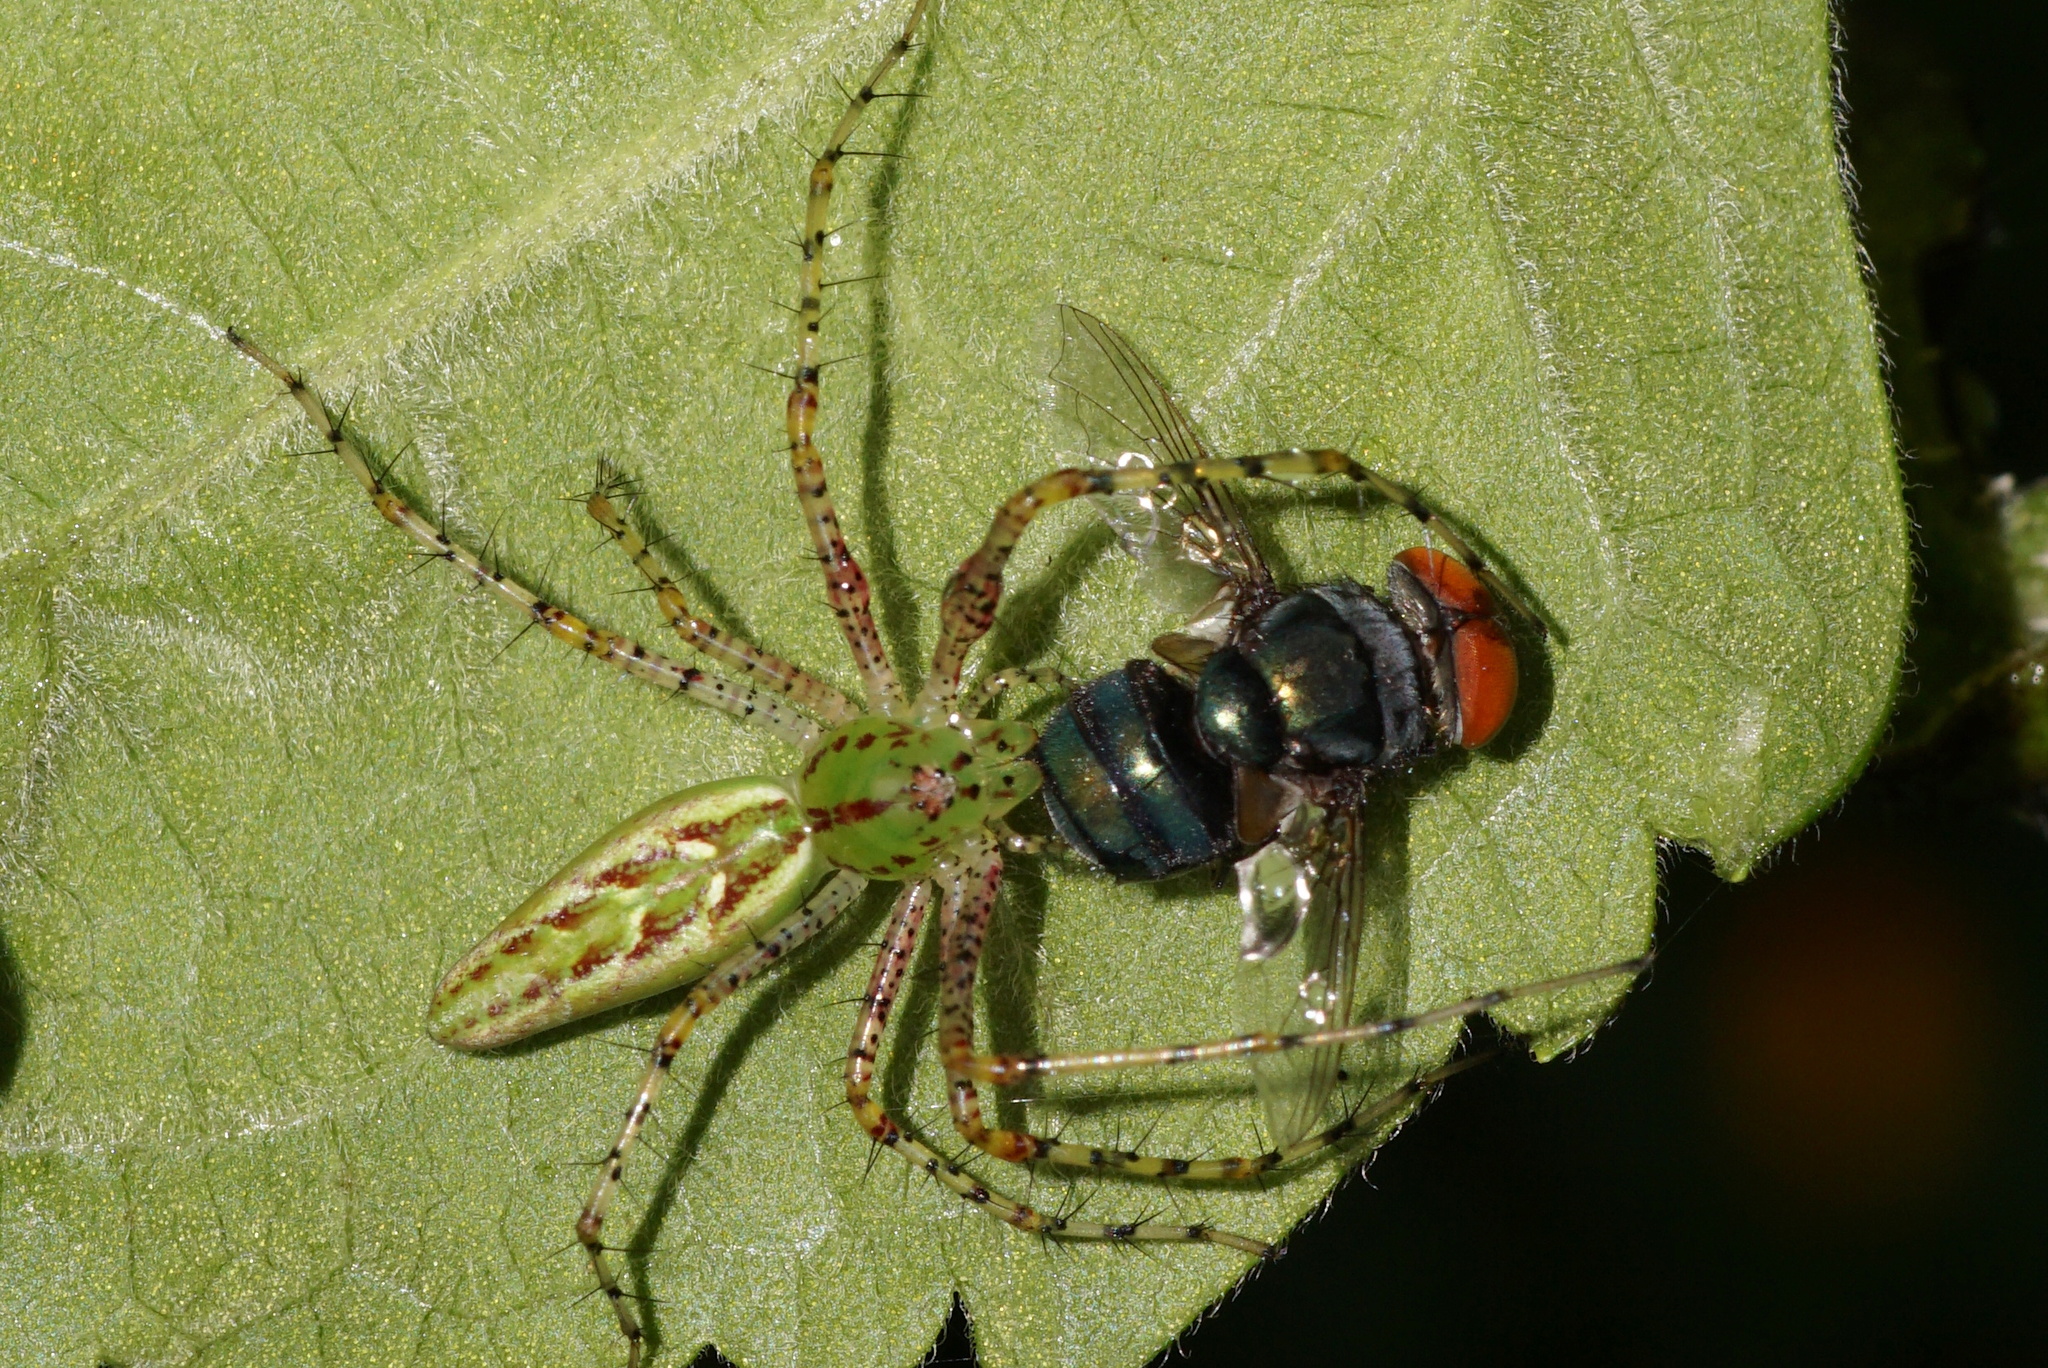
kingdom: Animalia
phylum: Arthropoda
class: Arachnida
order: Araneae
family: Oxyopidae
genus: Peucetia
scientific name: Peucetia viridans
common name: Lynx spiders
